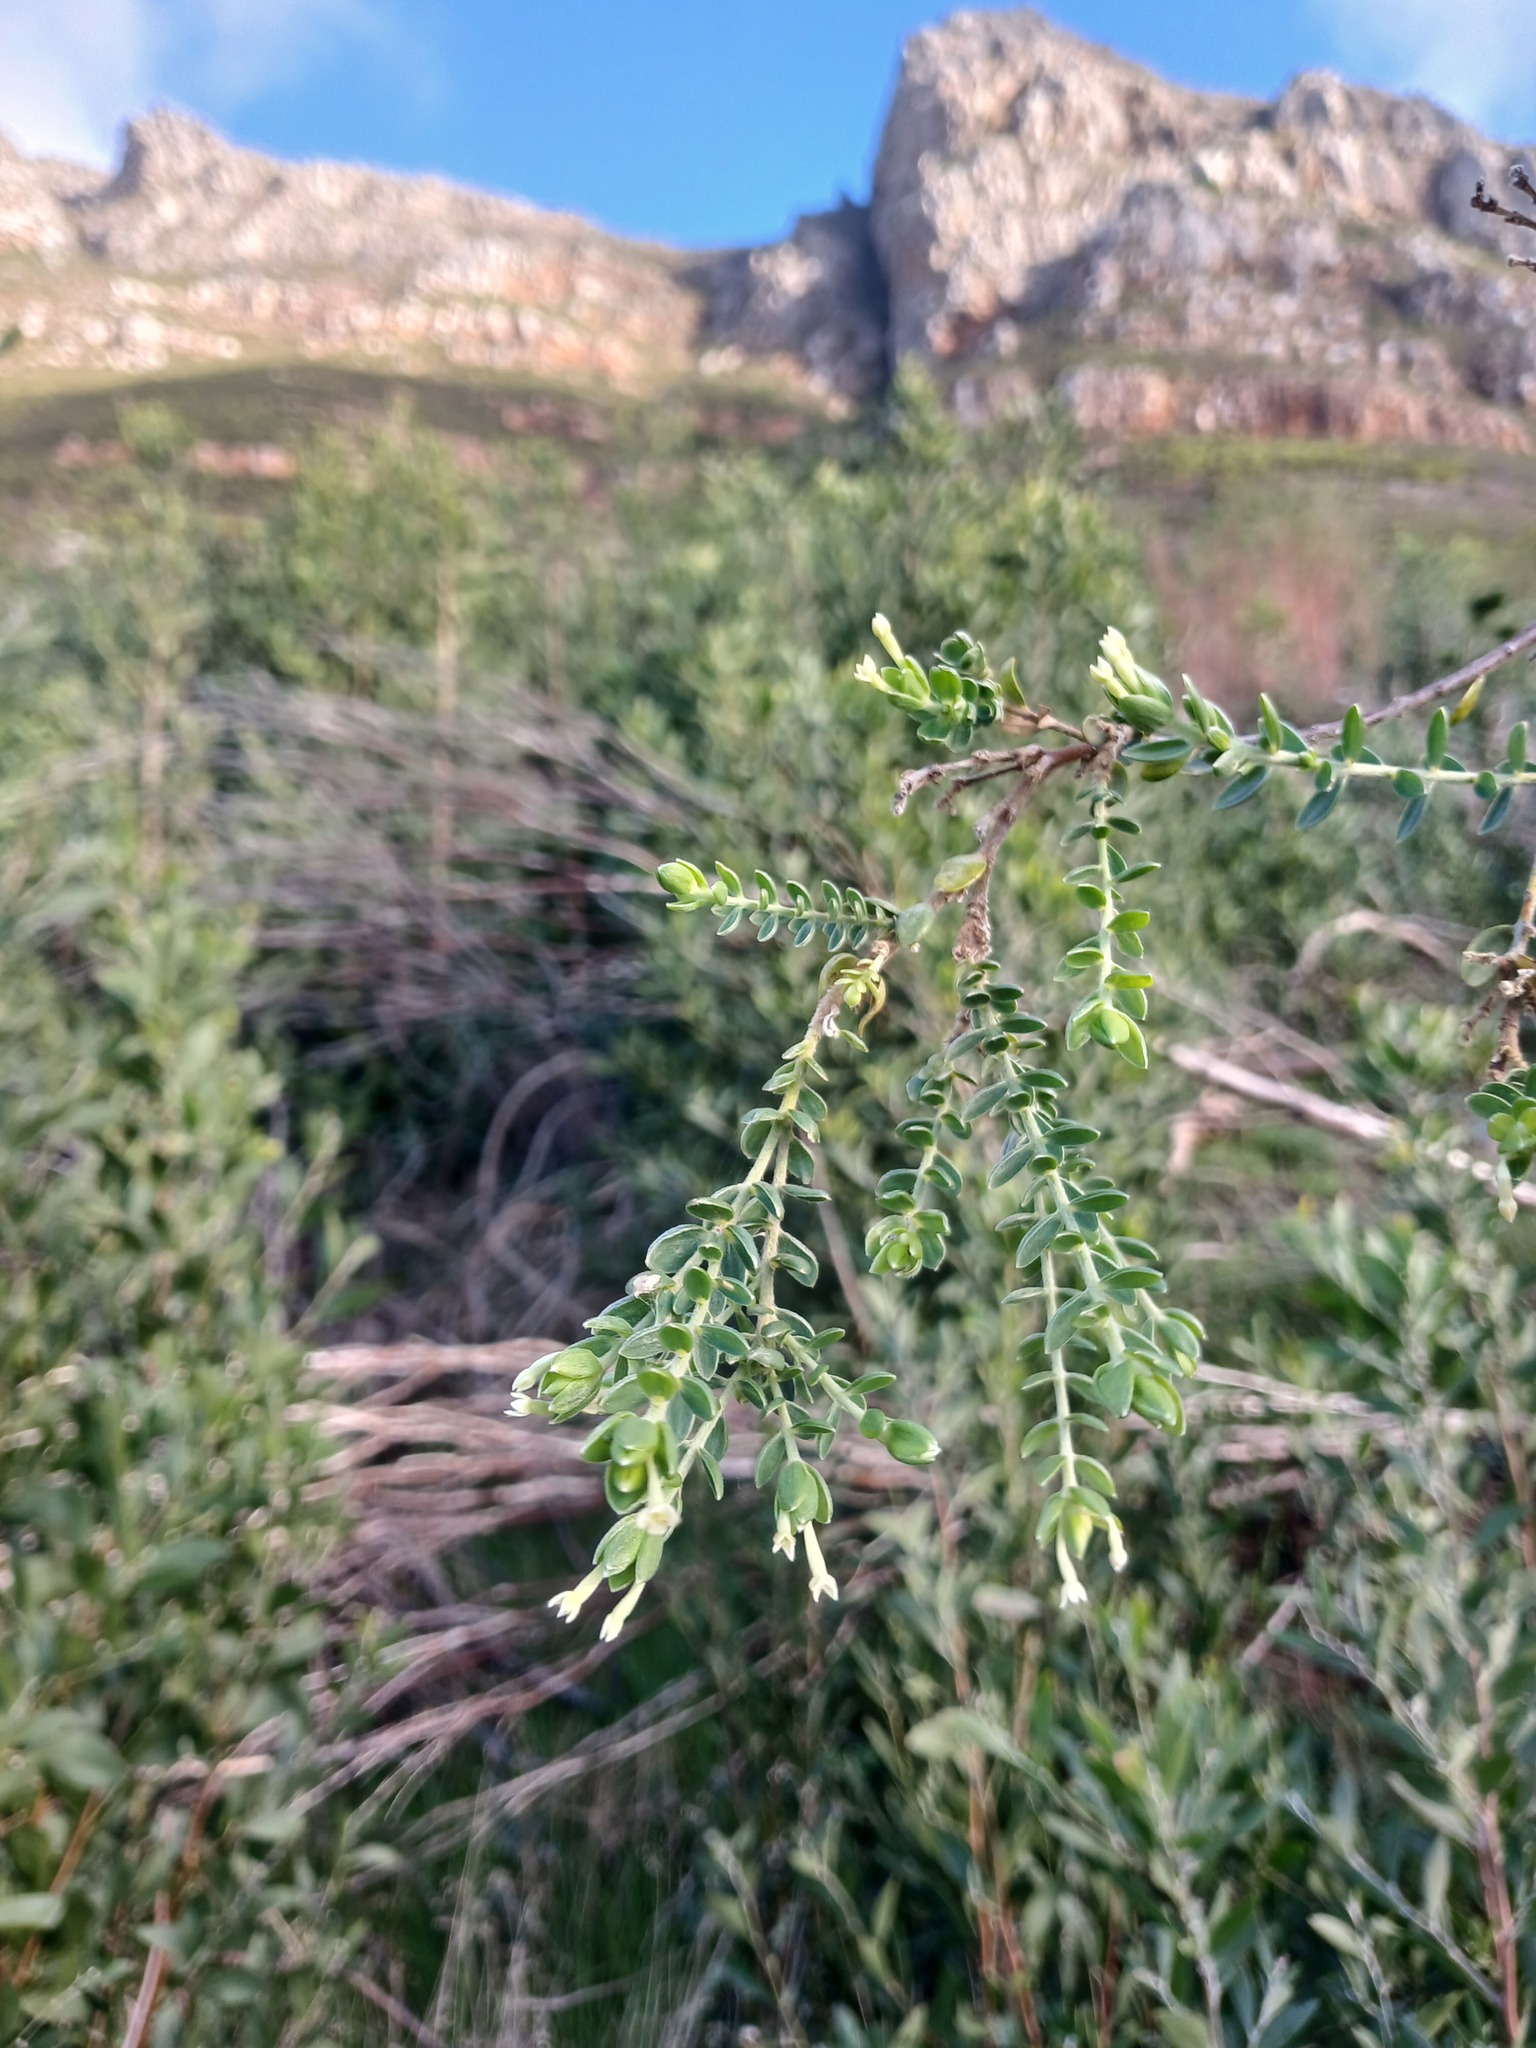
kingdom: Plantae
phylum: Tracheophyta
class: Magnoliopsida
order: Malvales
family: Thymelaeaceae
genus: Gnidia
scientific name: Gnidia sericea
